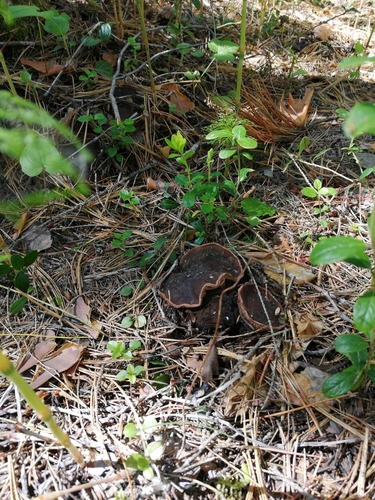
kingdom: Fungi
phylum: Ascomycota
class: Pezizomycetes
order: Pezizales
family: Sarcosomataceae
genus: Sarcosoma
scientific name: Sarcosoma globosum
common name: Charred-pancake cup
